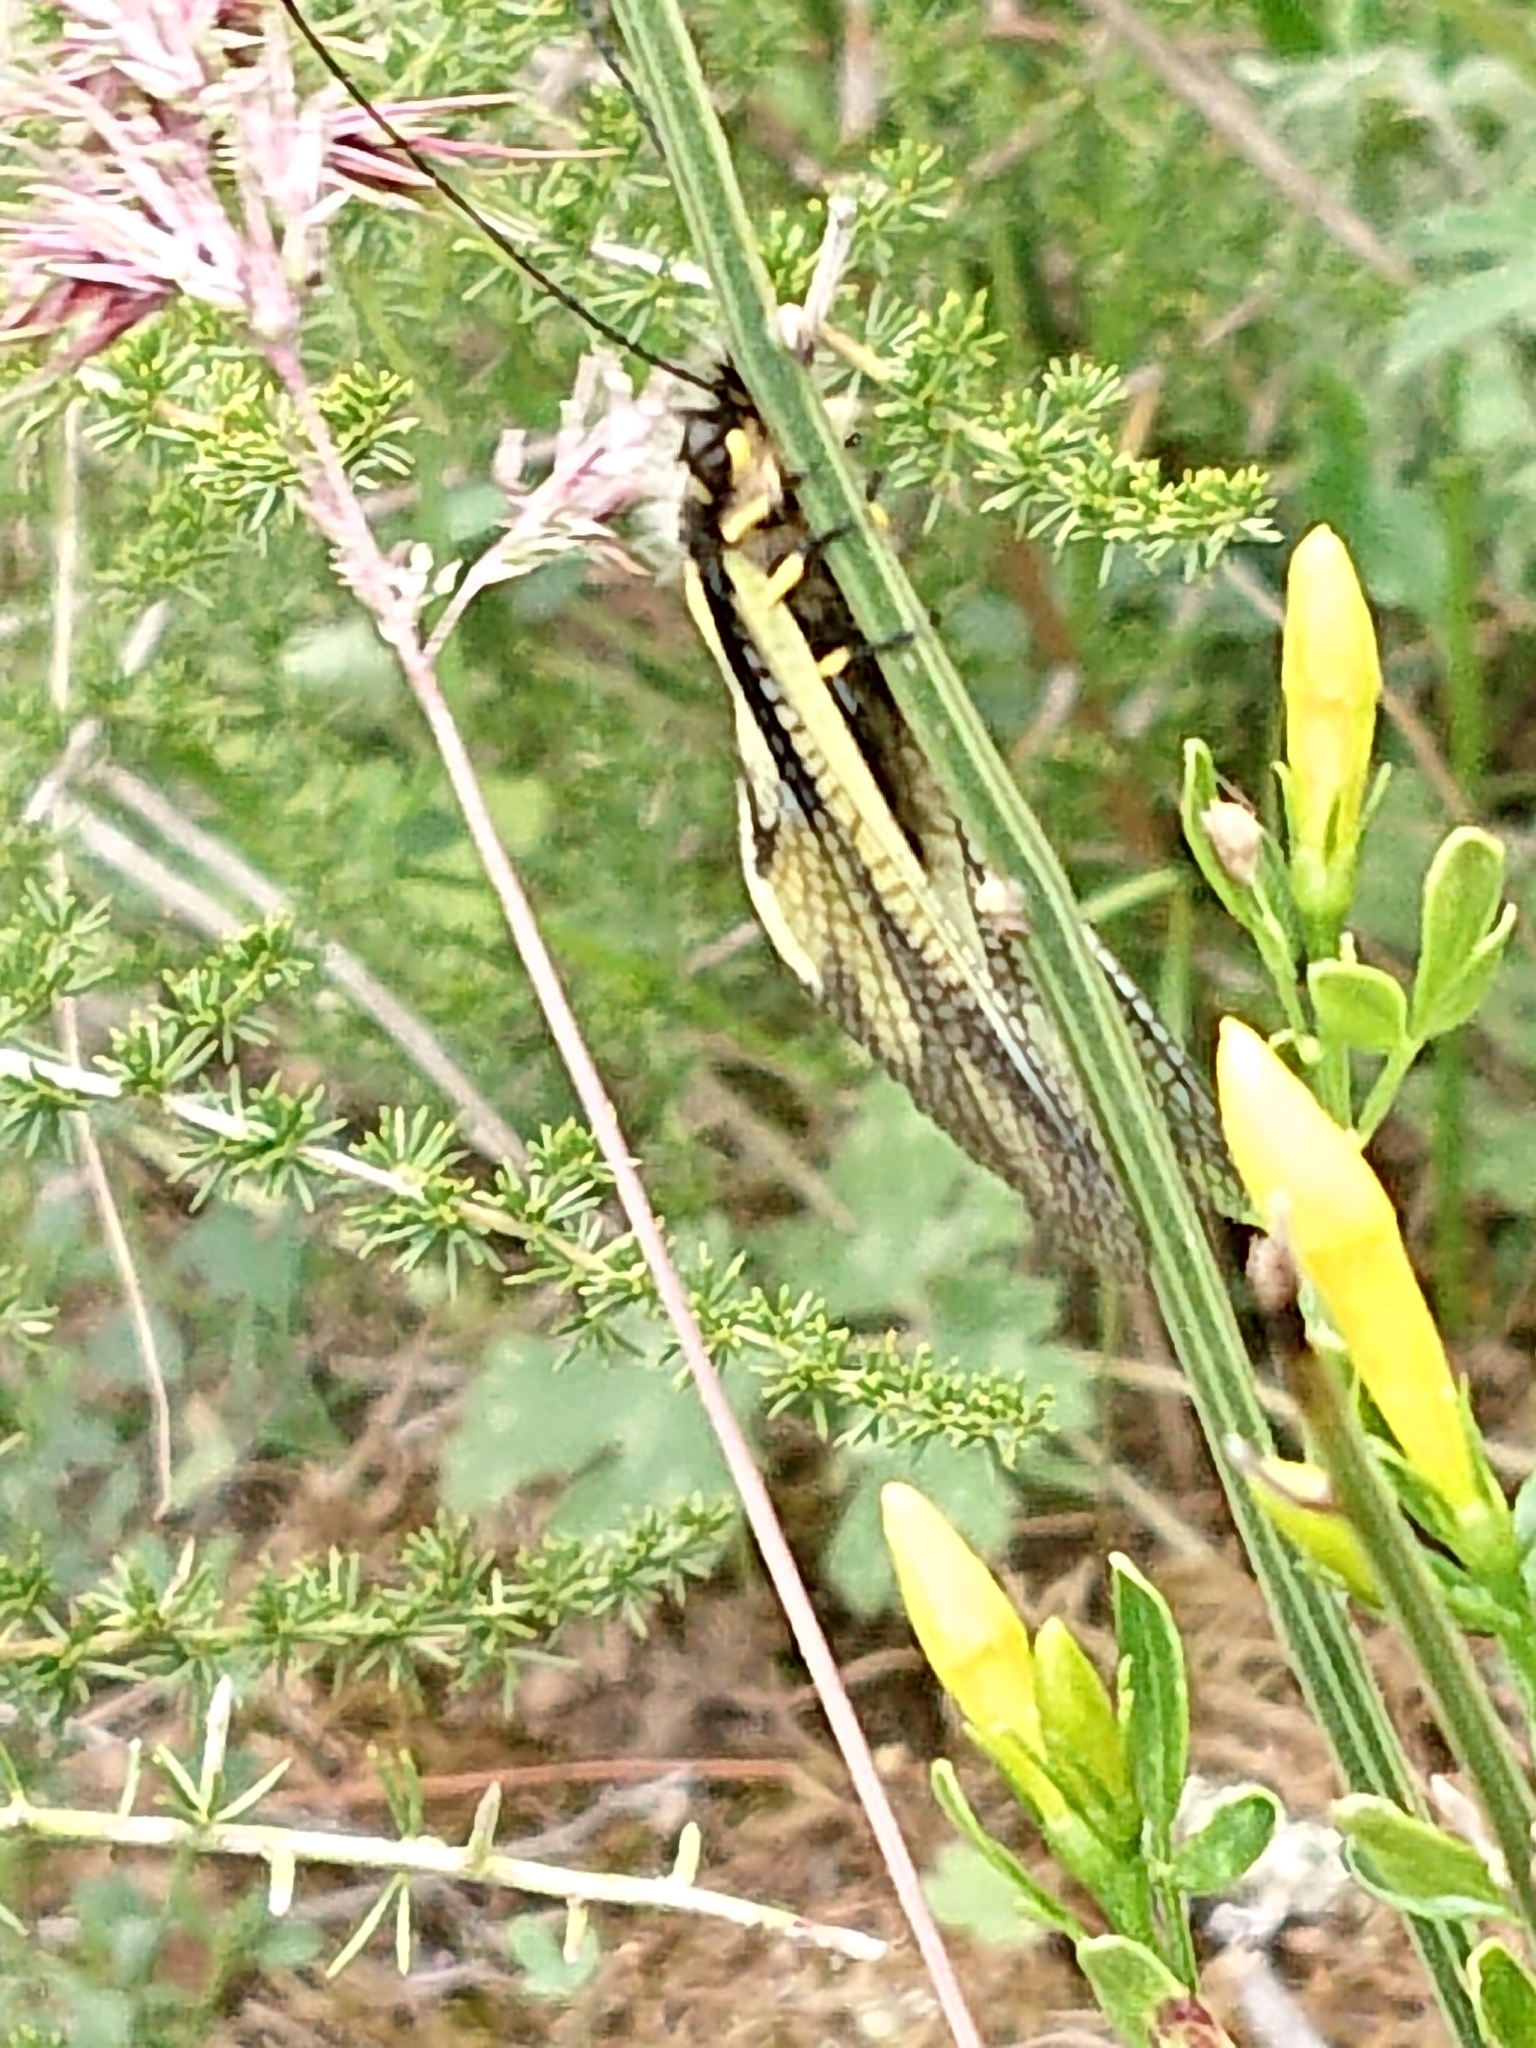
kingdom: Animalia
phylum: Arthropoda
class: Insecta
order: Neuroptera
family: Ascalaphidae
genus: Libelloides
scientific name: Libelloides coccajus
